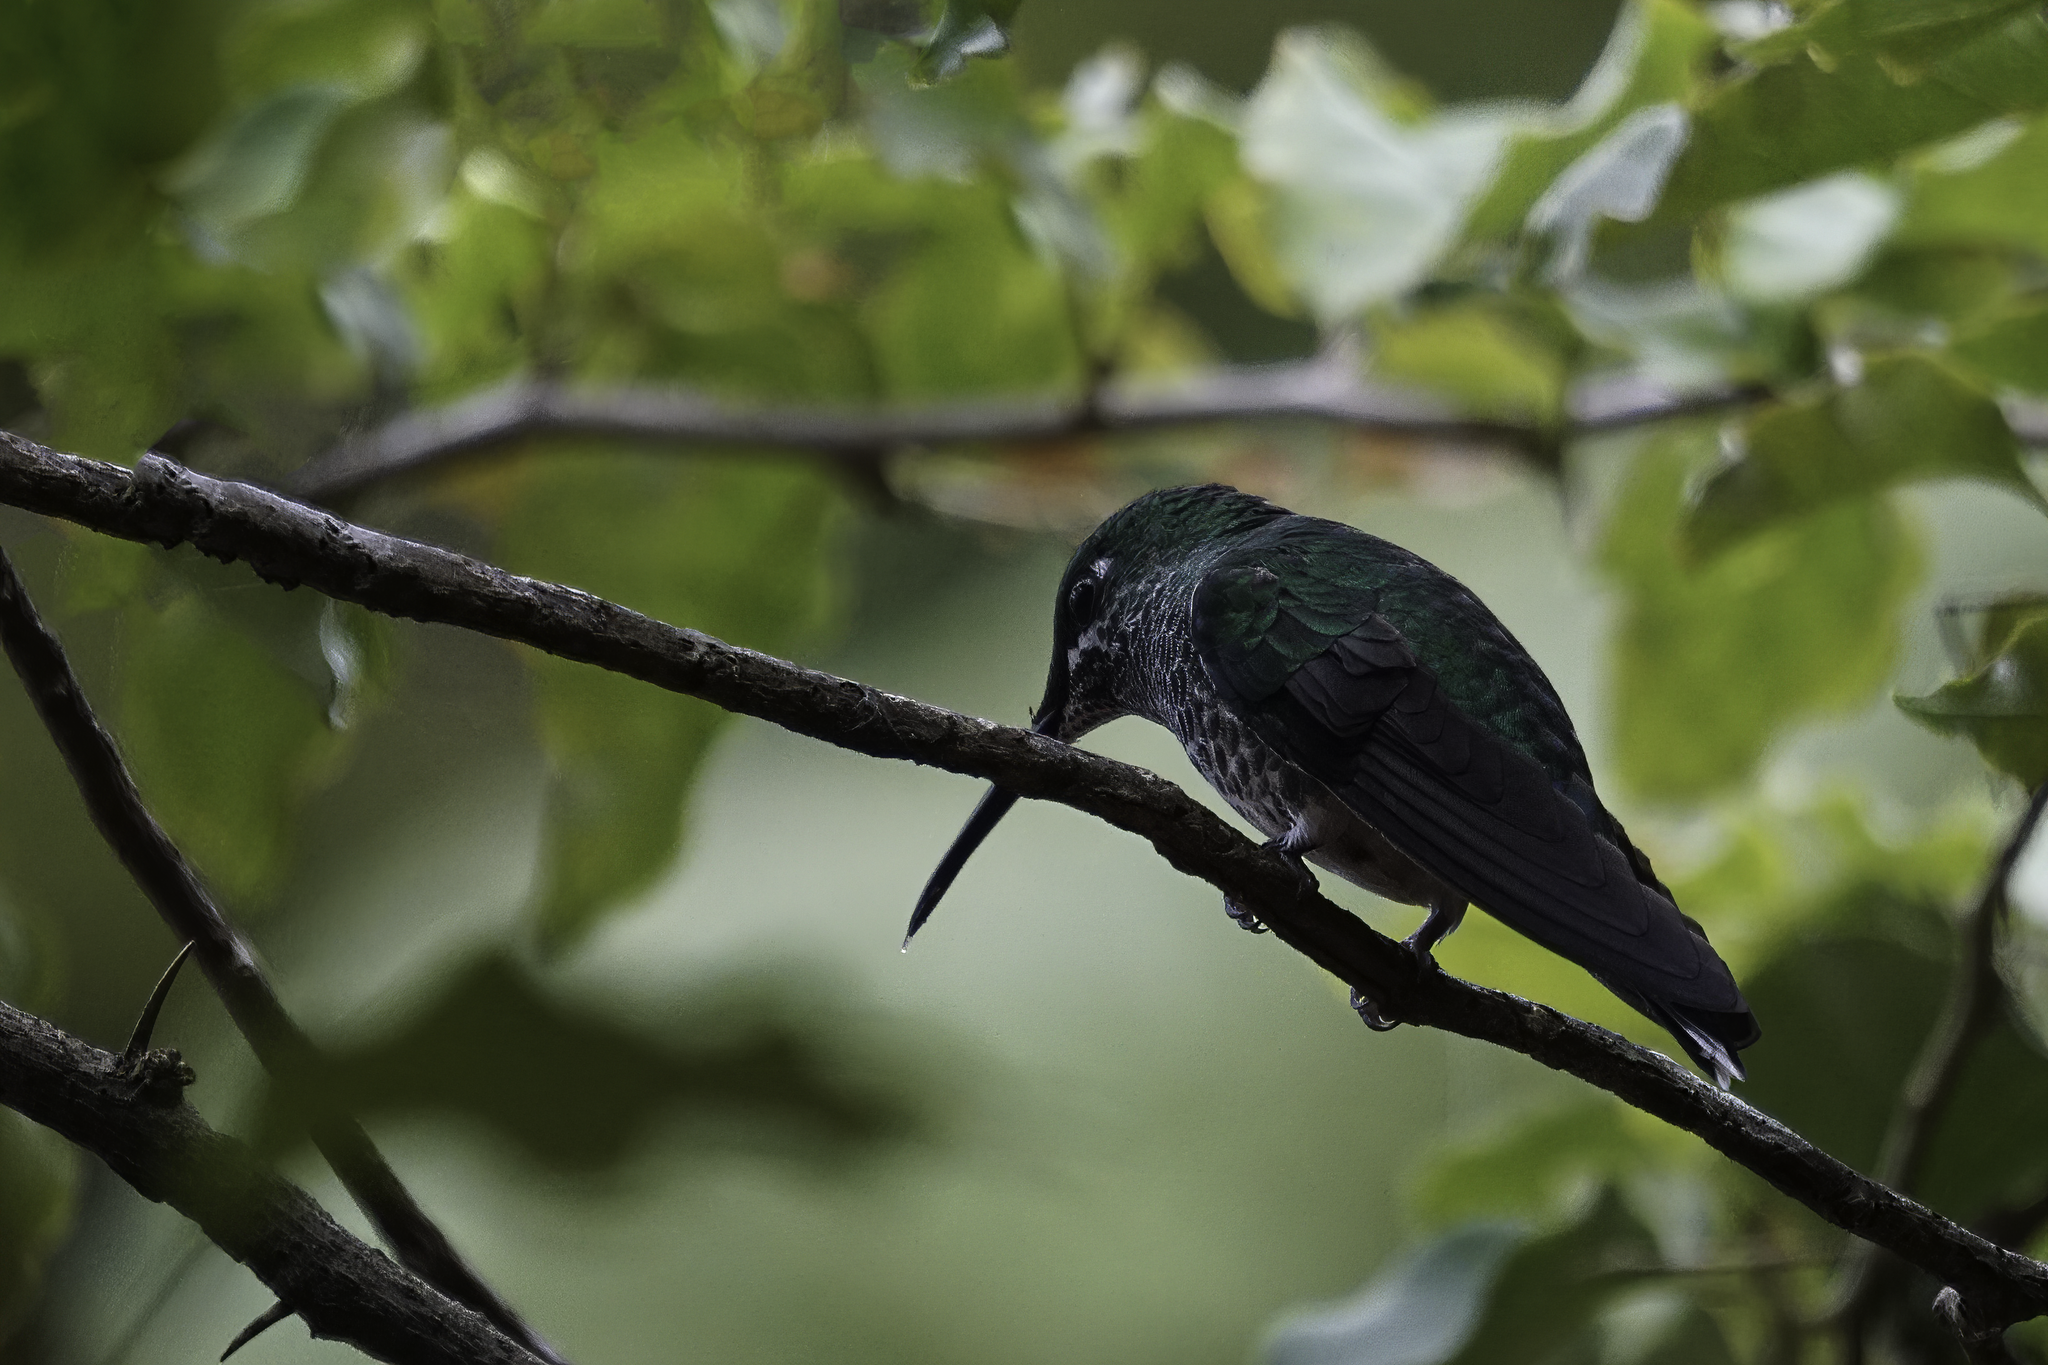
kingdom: Animalia
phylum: Chordata
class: Aves
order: Apodiformes
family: Trochilidae
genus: Heliodoxa
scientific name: Heliodoxa jacula
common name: Green-crowned brilliant
